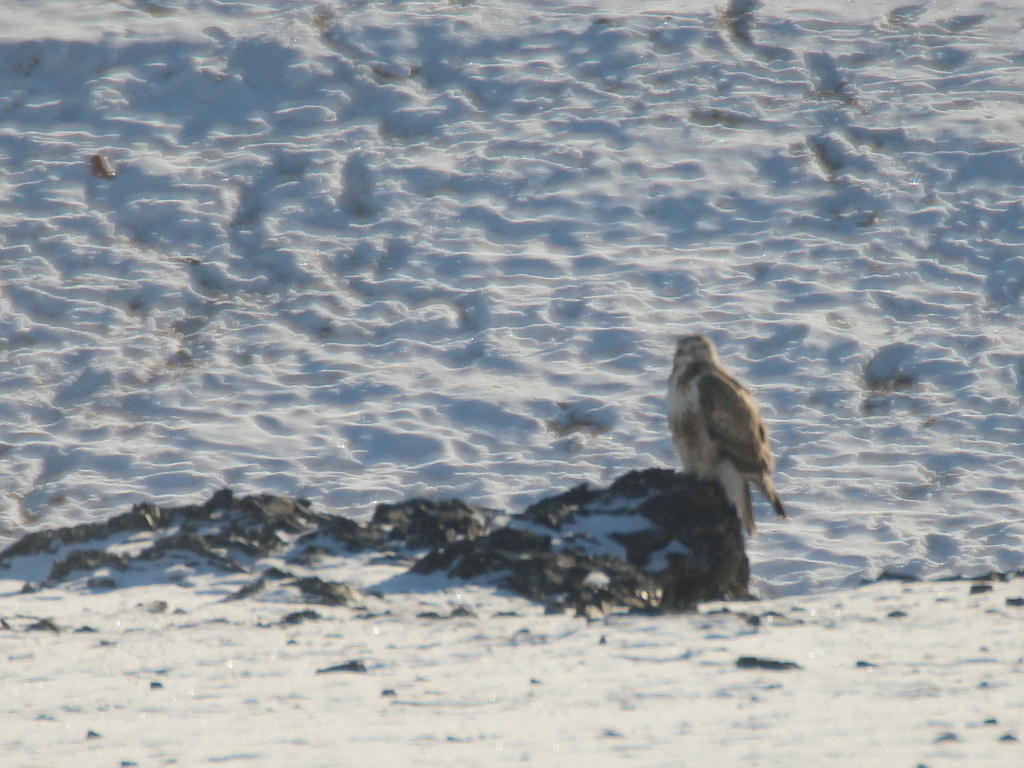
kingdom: Animalia
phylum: Chordata
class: Aves
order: Accipitriformes
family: Accipitridae
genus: Buteo
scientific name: Buteo hemilasius
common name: Upland buzzard
